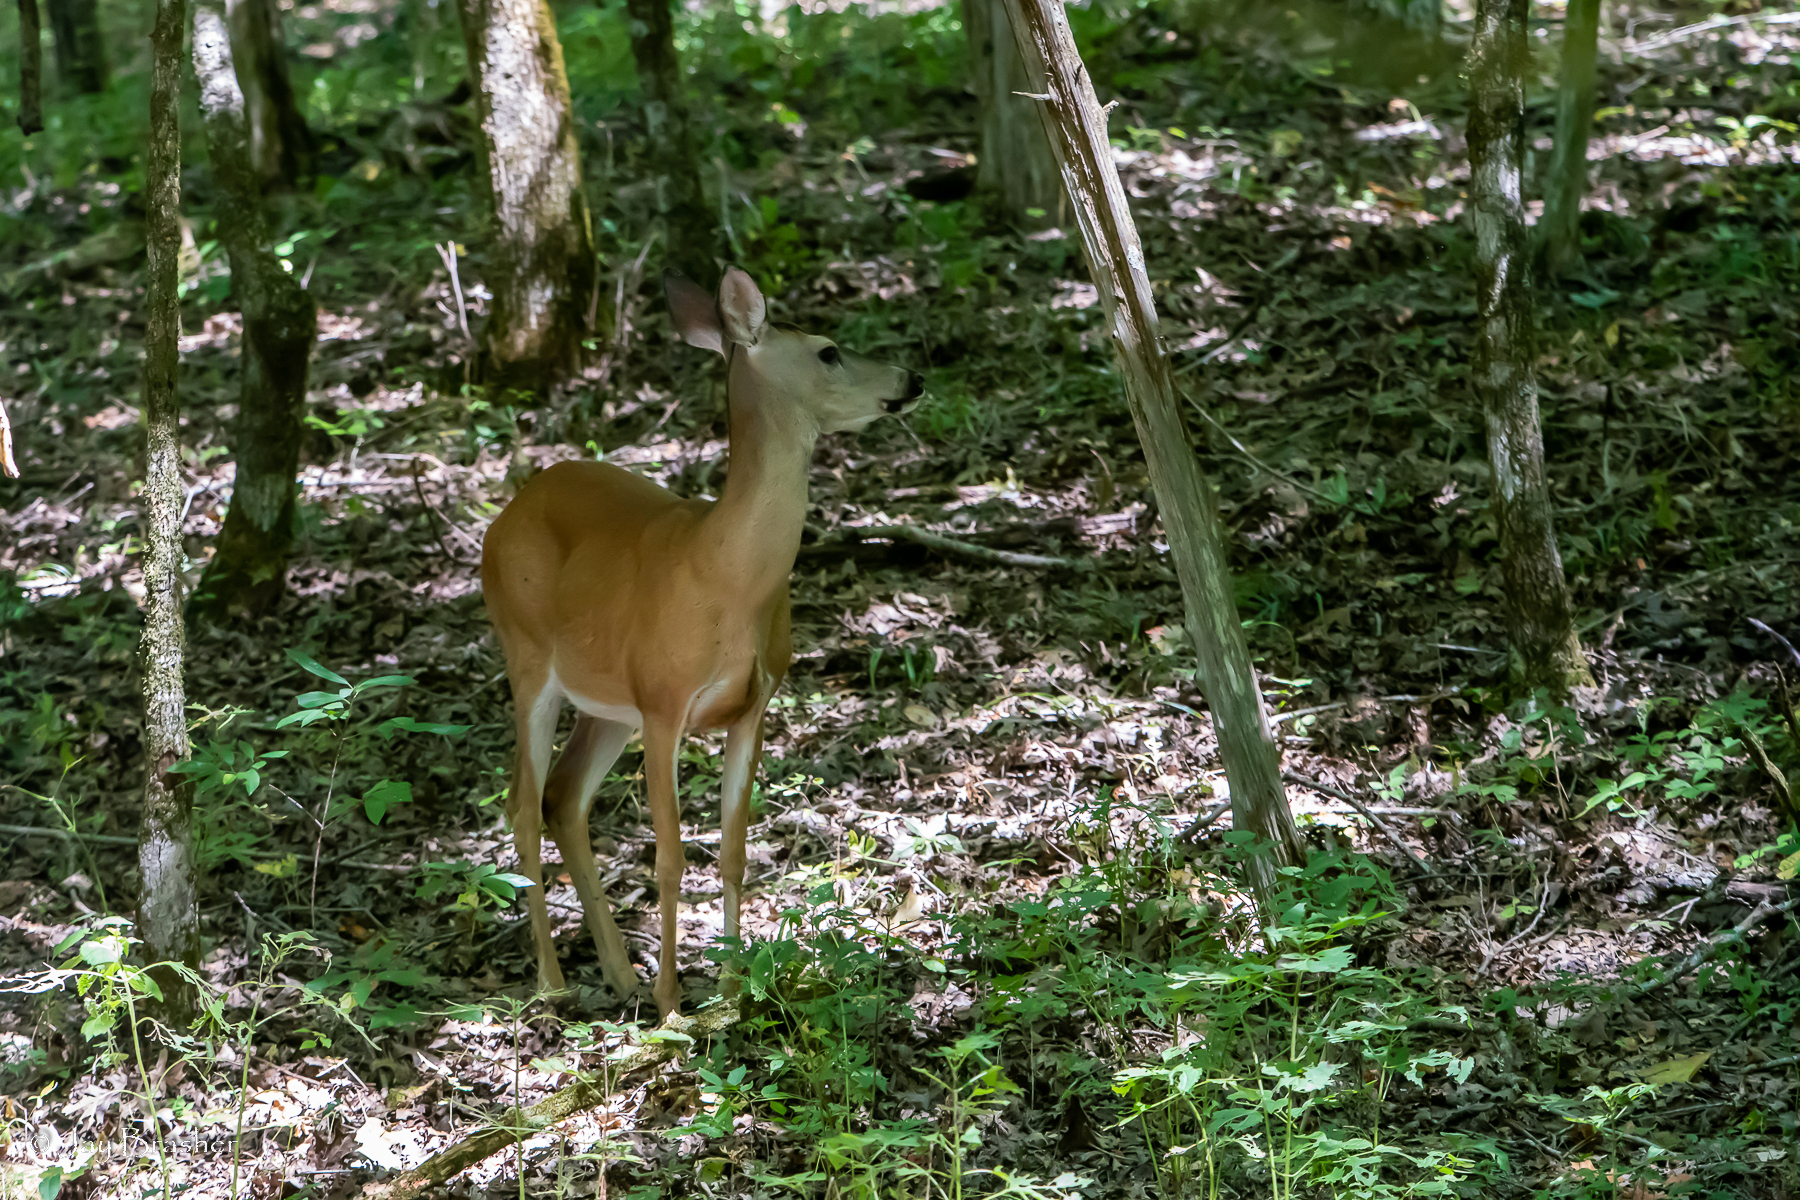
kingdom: Animalia
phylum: Chordata
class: Mammalia
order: Artiodactyla
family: Cervidae
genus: Odocoileus
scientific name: Odocoileus virginianus
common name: White-tailed deer
